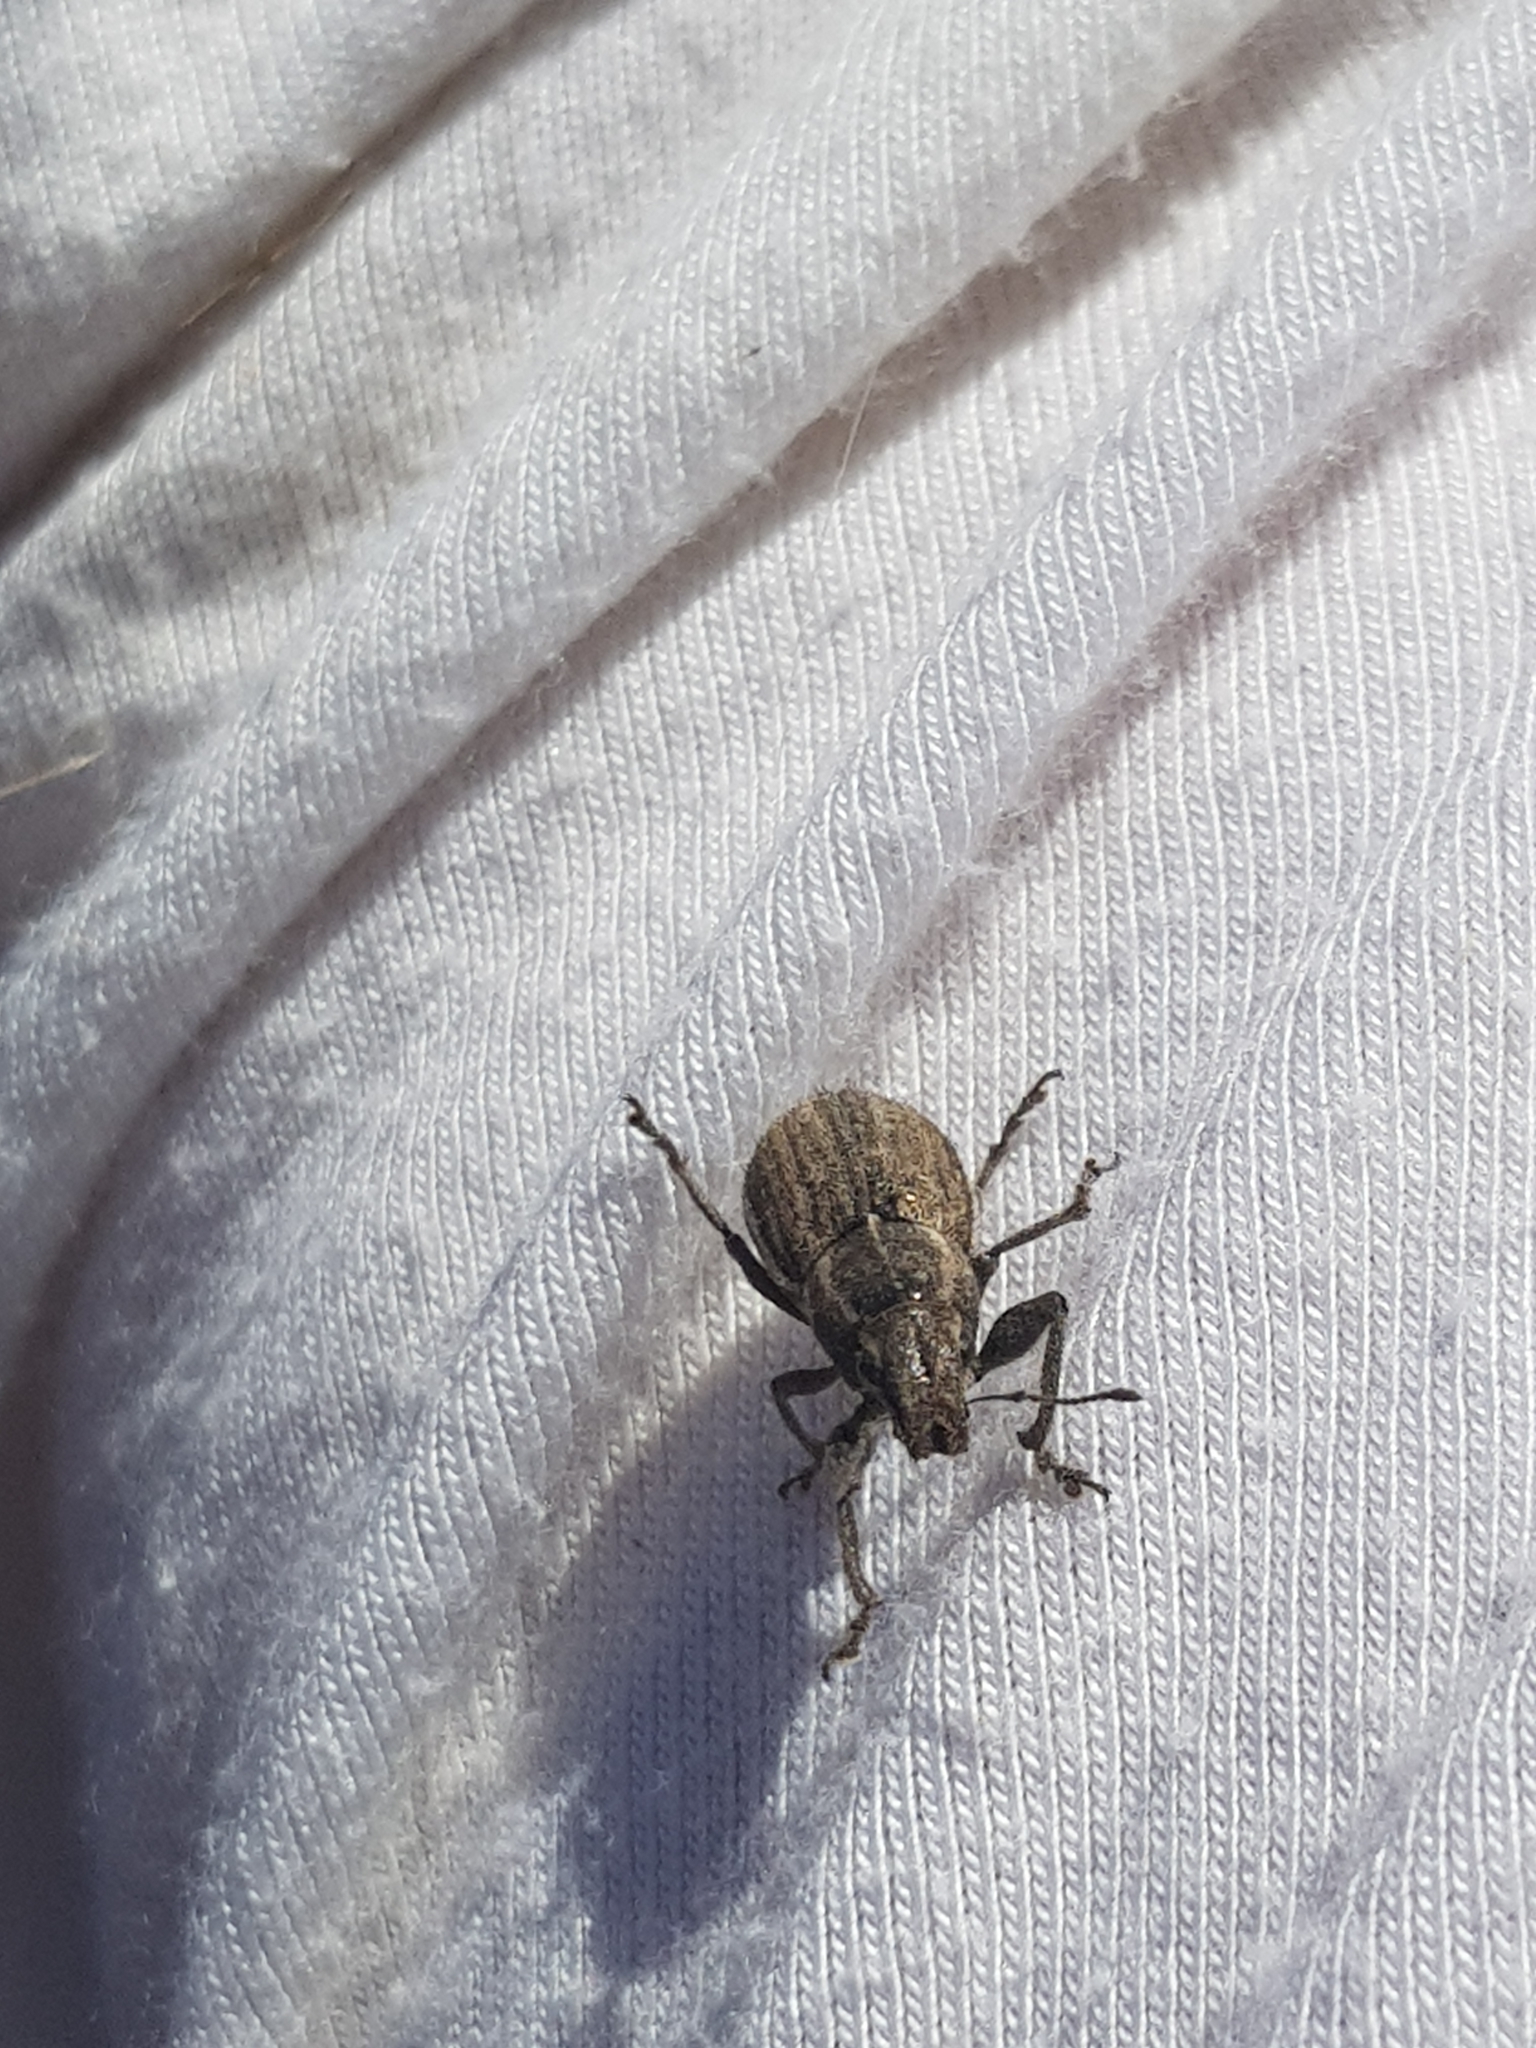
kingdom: Animalia
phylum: Arthropoda
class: Insecta
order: Coleoptera
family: Curculionidae
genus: Naupactus
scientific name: Naupactus leucoloma
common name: Whitefringed beetle
